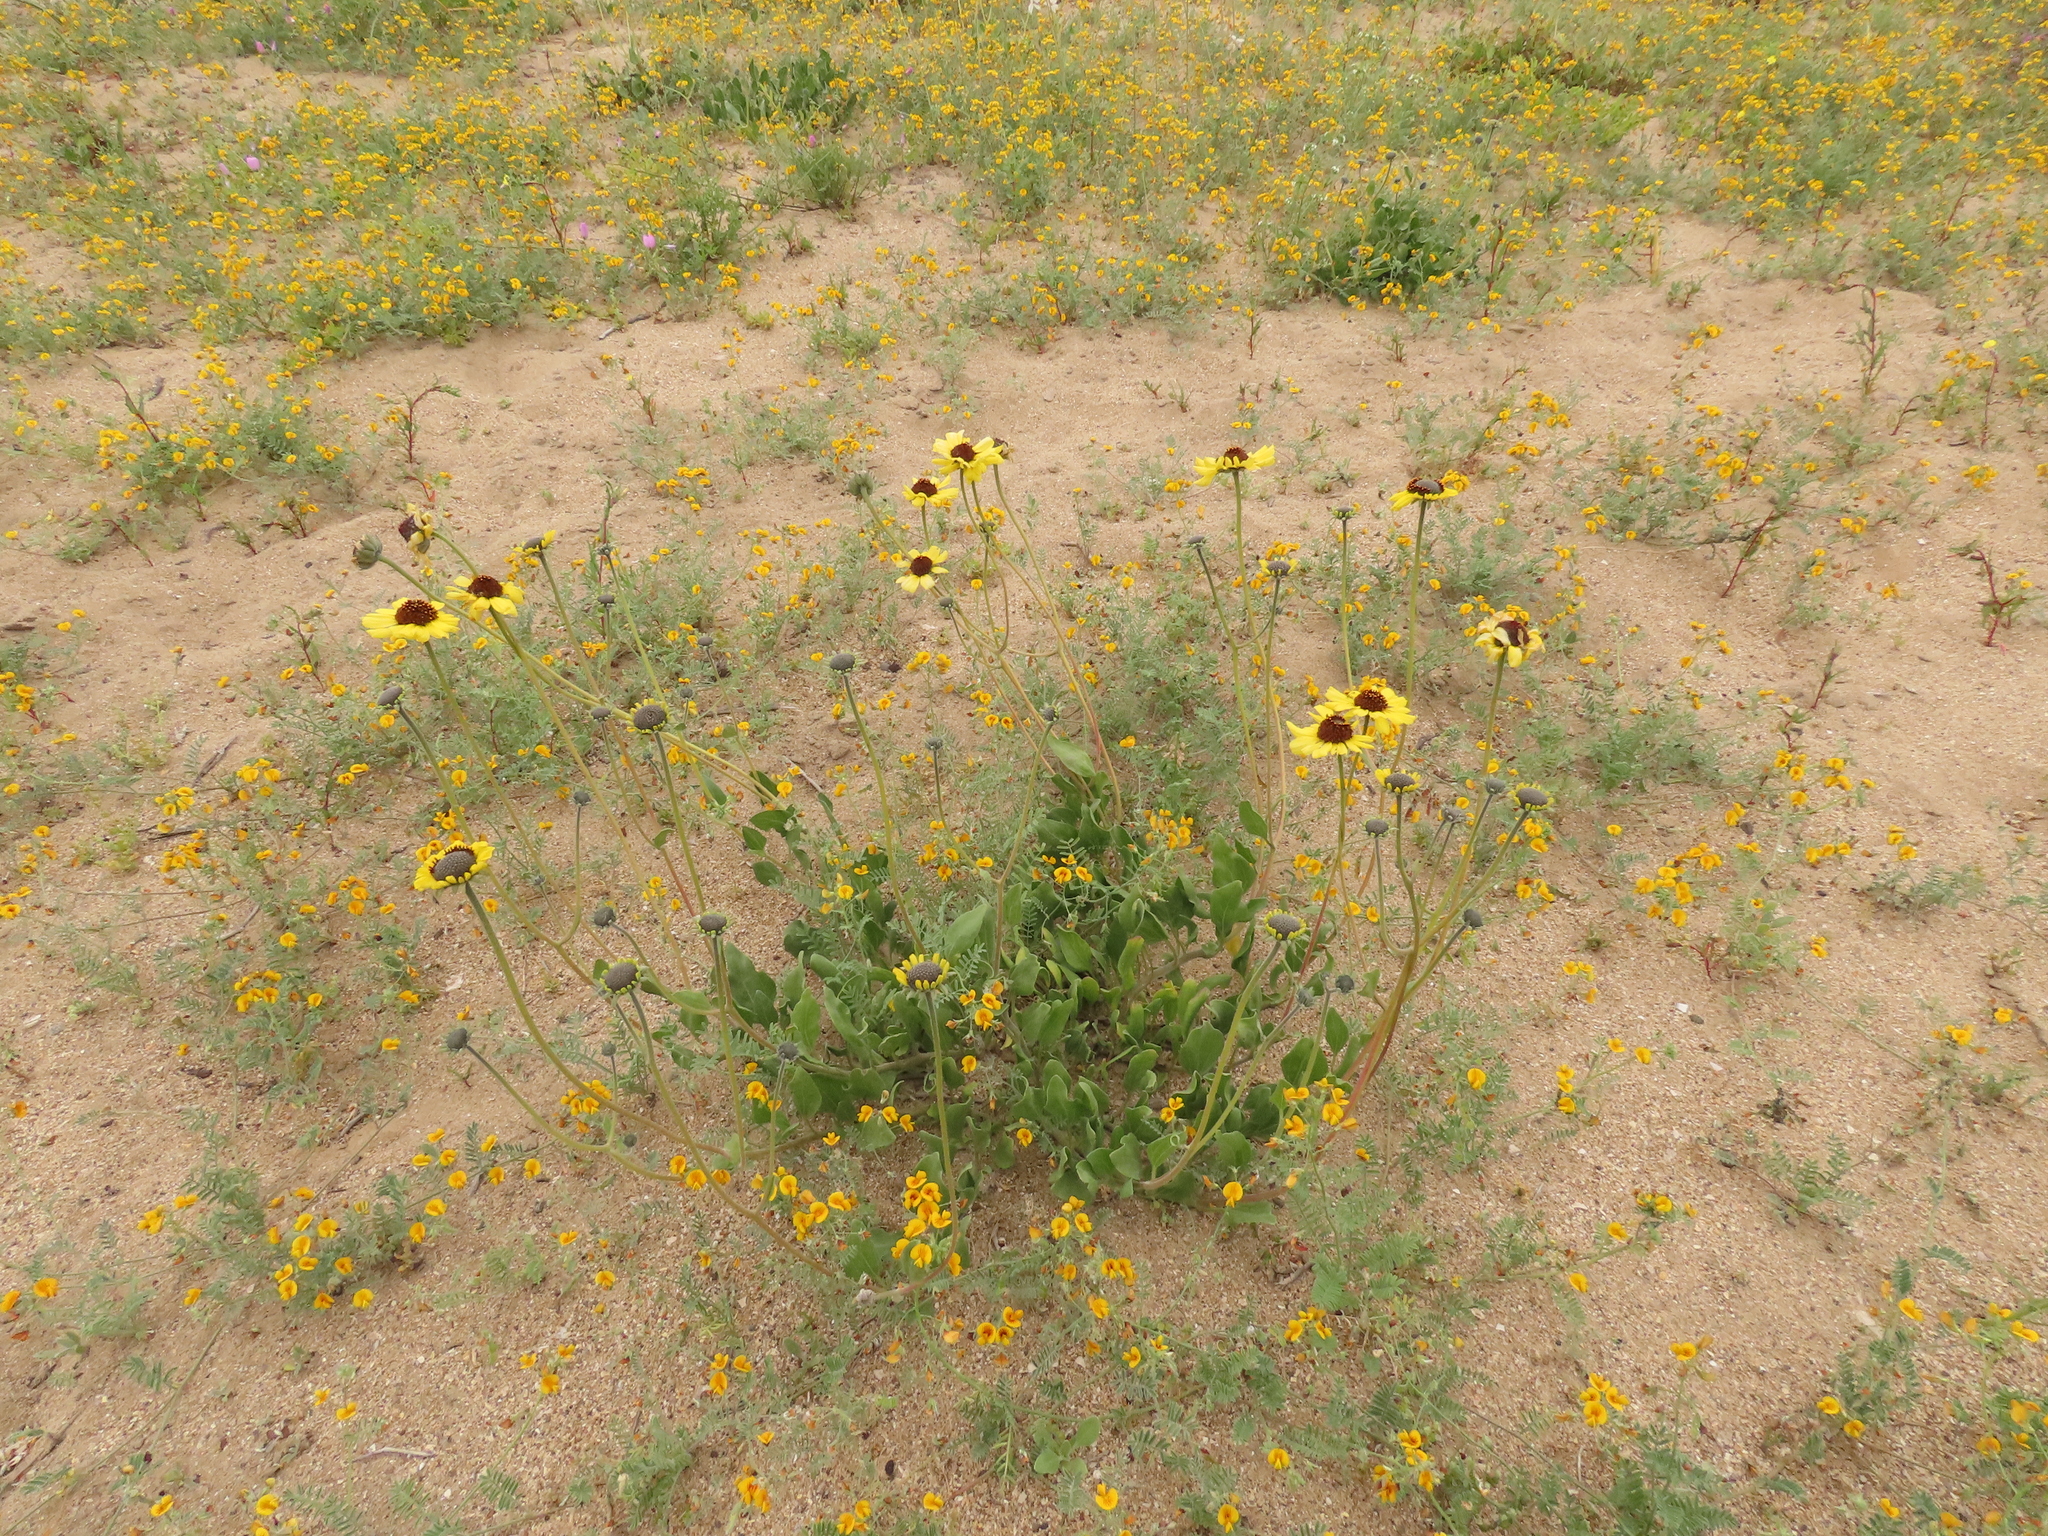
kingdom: Plantae
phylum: Tracheophyta
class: Magnoliopsida
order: Asterales
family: Asteraceae
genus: Encelia
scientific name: Encelia canescens
